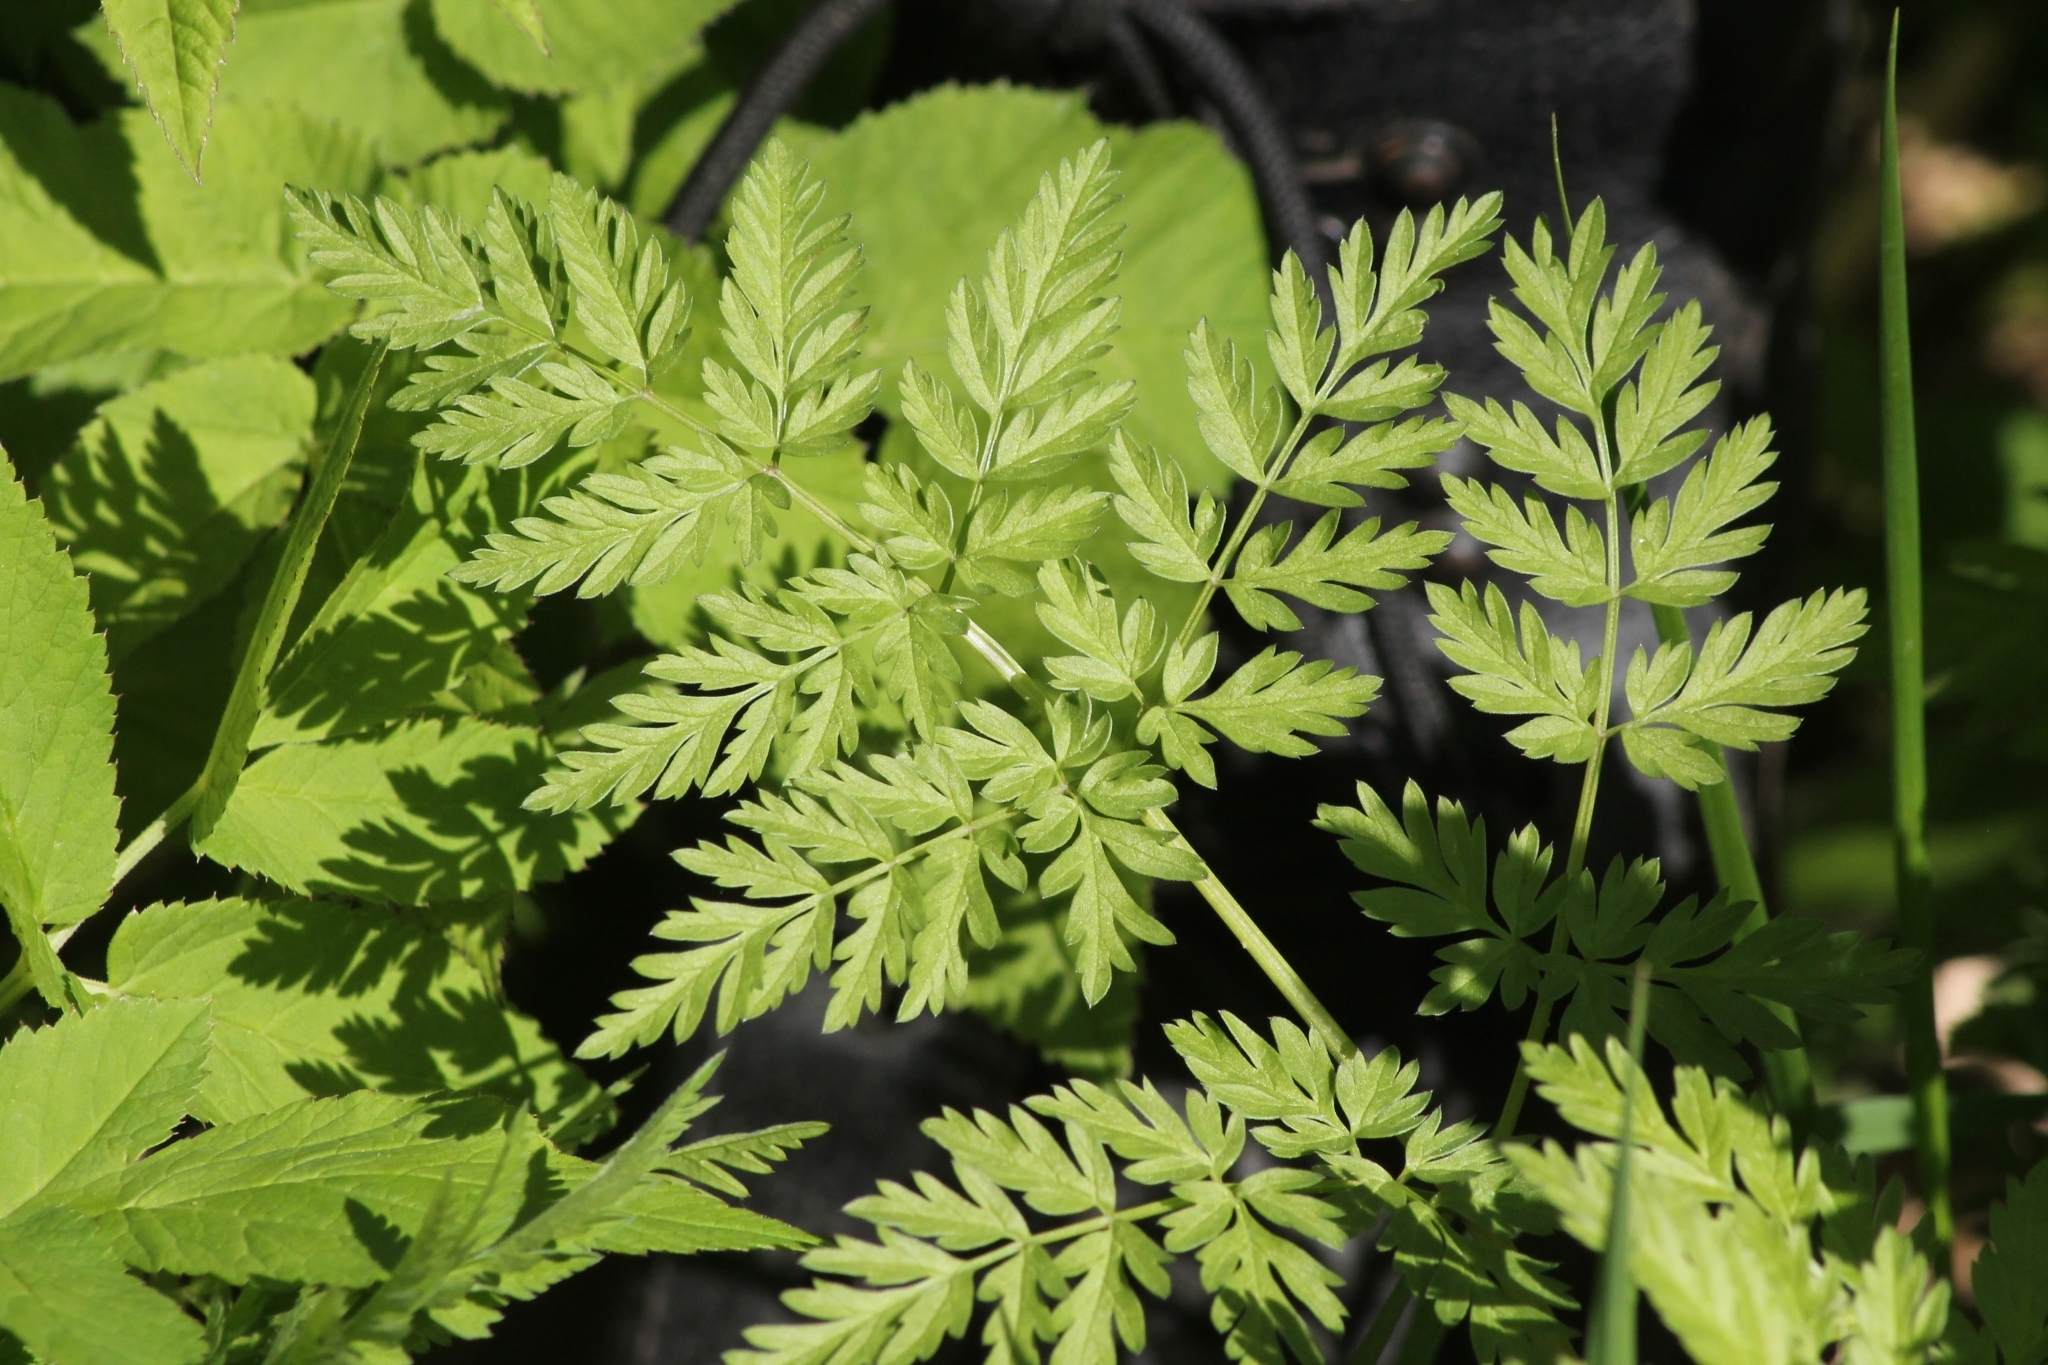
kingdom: Plantae
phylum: Tracheophyta
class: Magnoliopsida
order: Apiales
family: Apiaceae
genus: Anthriscus
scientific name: Anthriscus sylvestris
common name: Cow parsley
